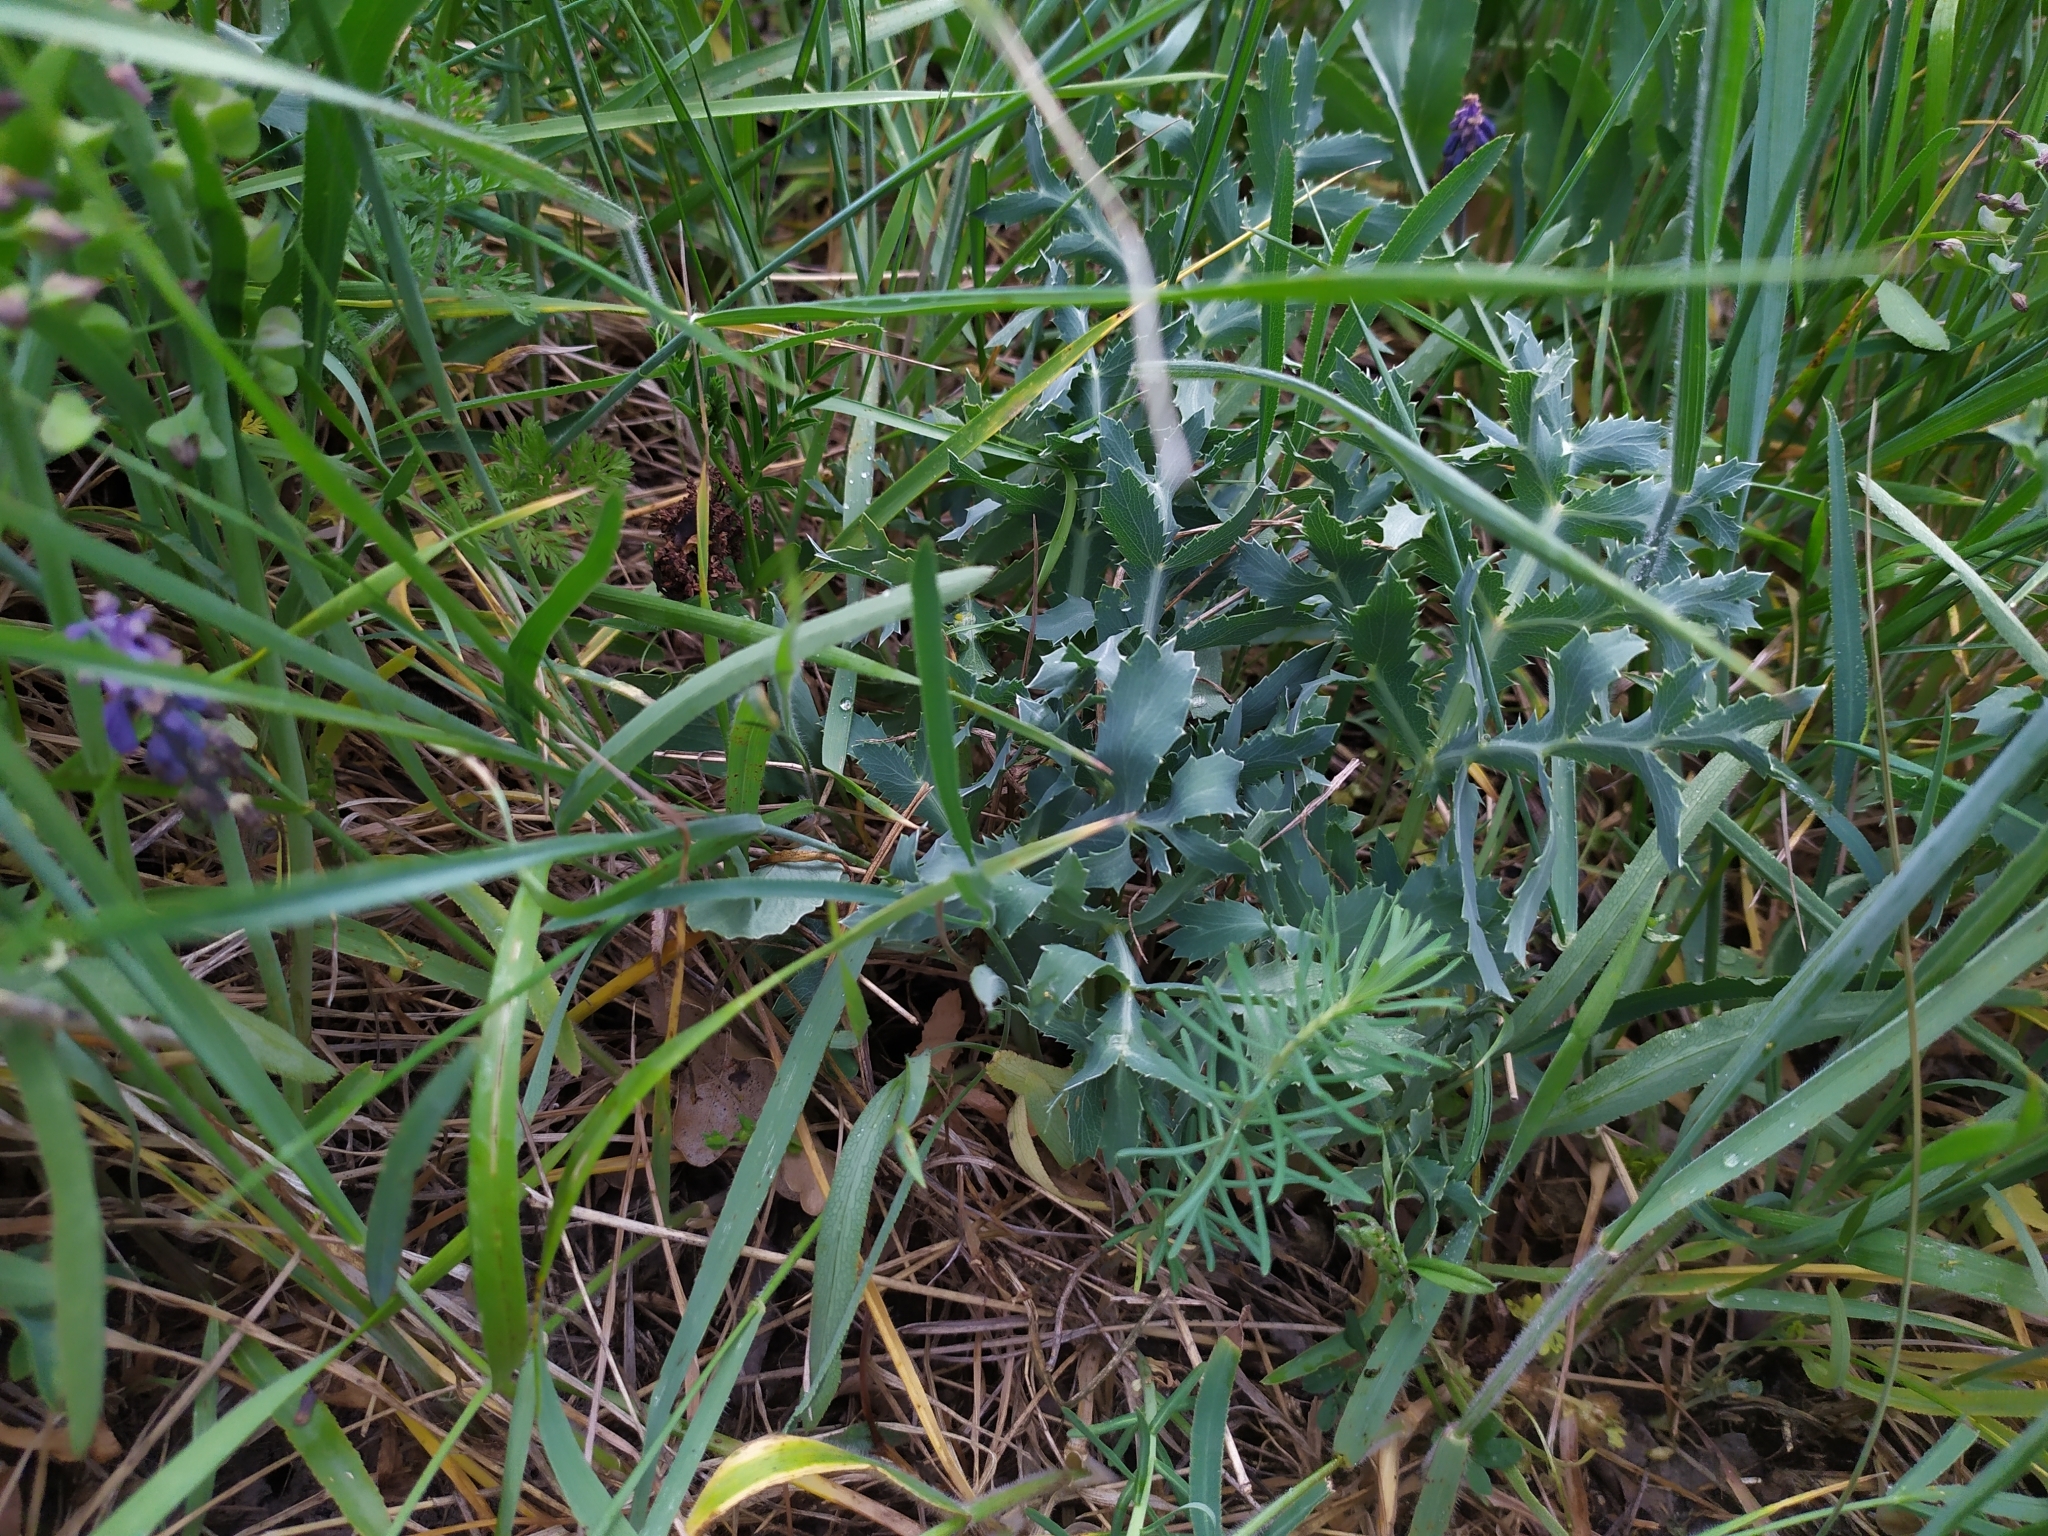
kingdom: Plantae
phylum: Tracheophyta
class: Magnoliopsida
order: Apiales
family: Apiaceae
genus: Eryngium
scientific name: Eryngium campestre
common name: Field eryngo
